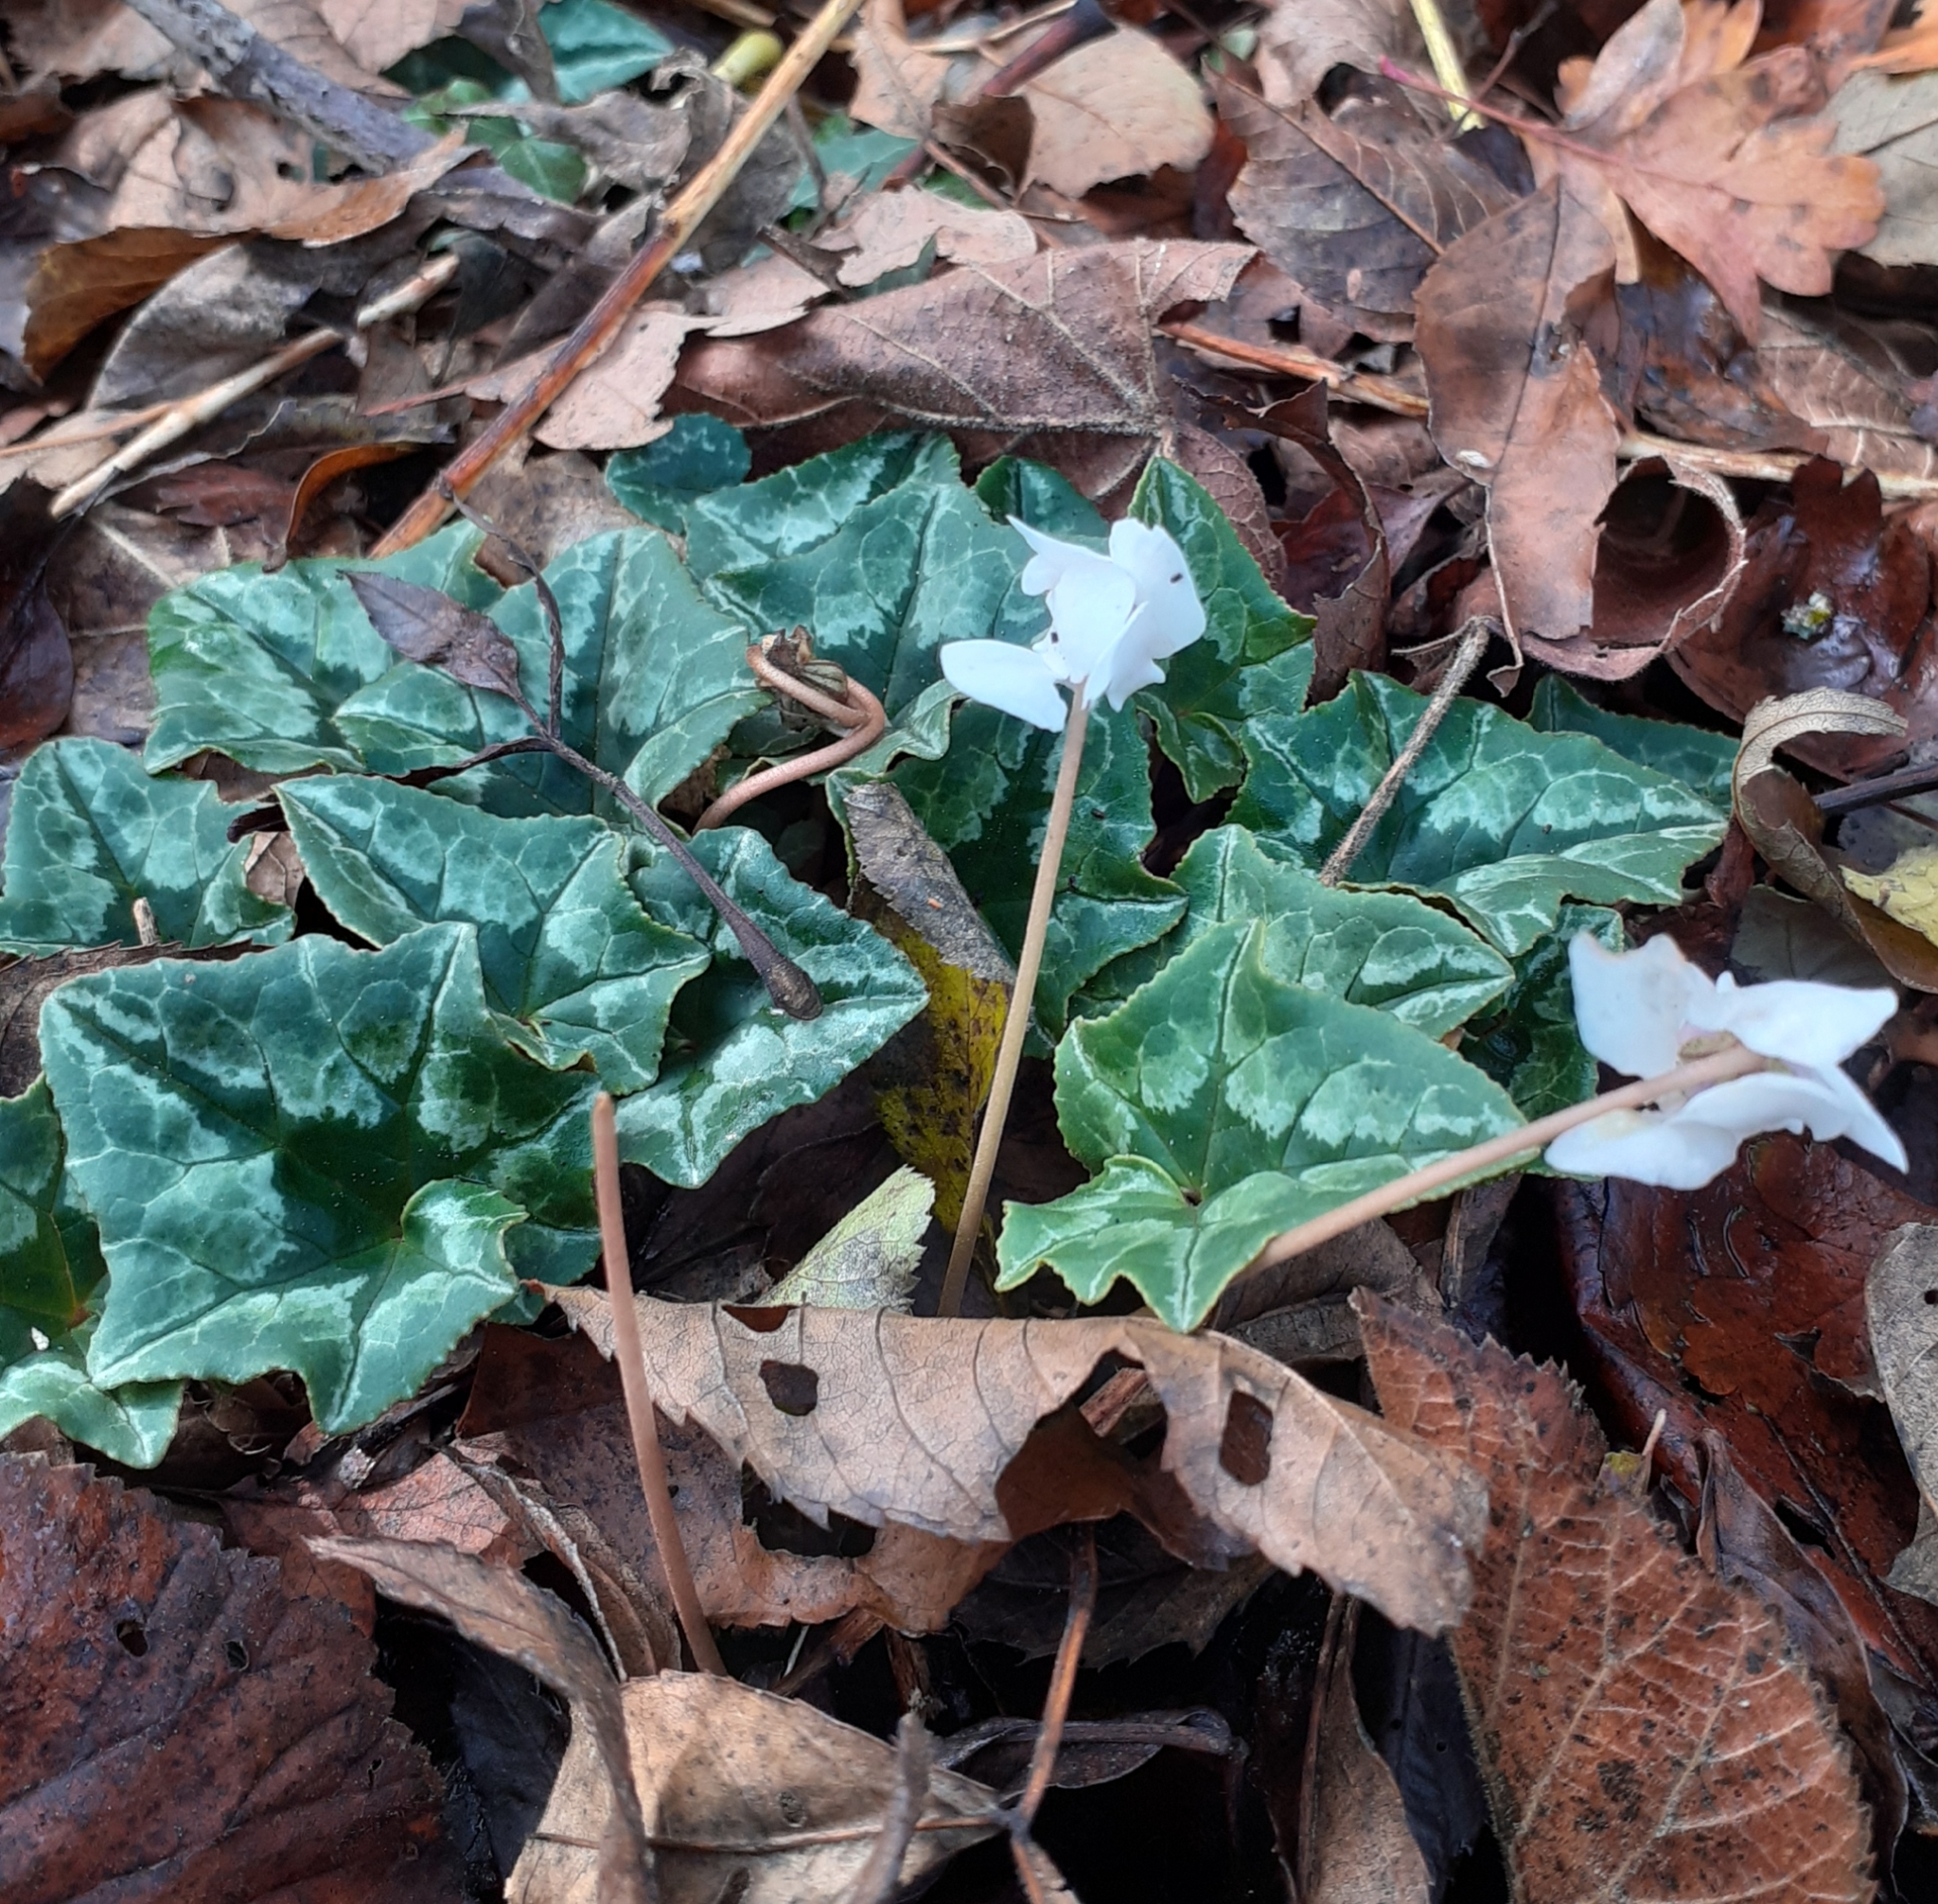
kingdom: Plantae
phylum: Tracheophyta
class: Magnoliopsida
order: Ericales
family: Primulaceae
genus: Cyclamen
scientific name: Cyclamen hederifolium
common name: Sowbread
